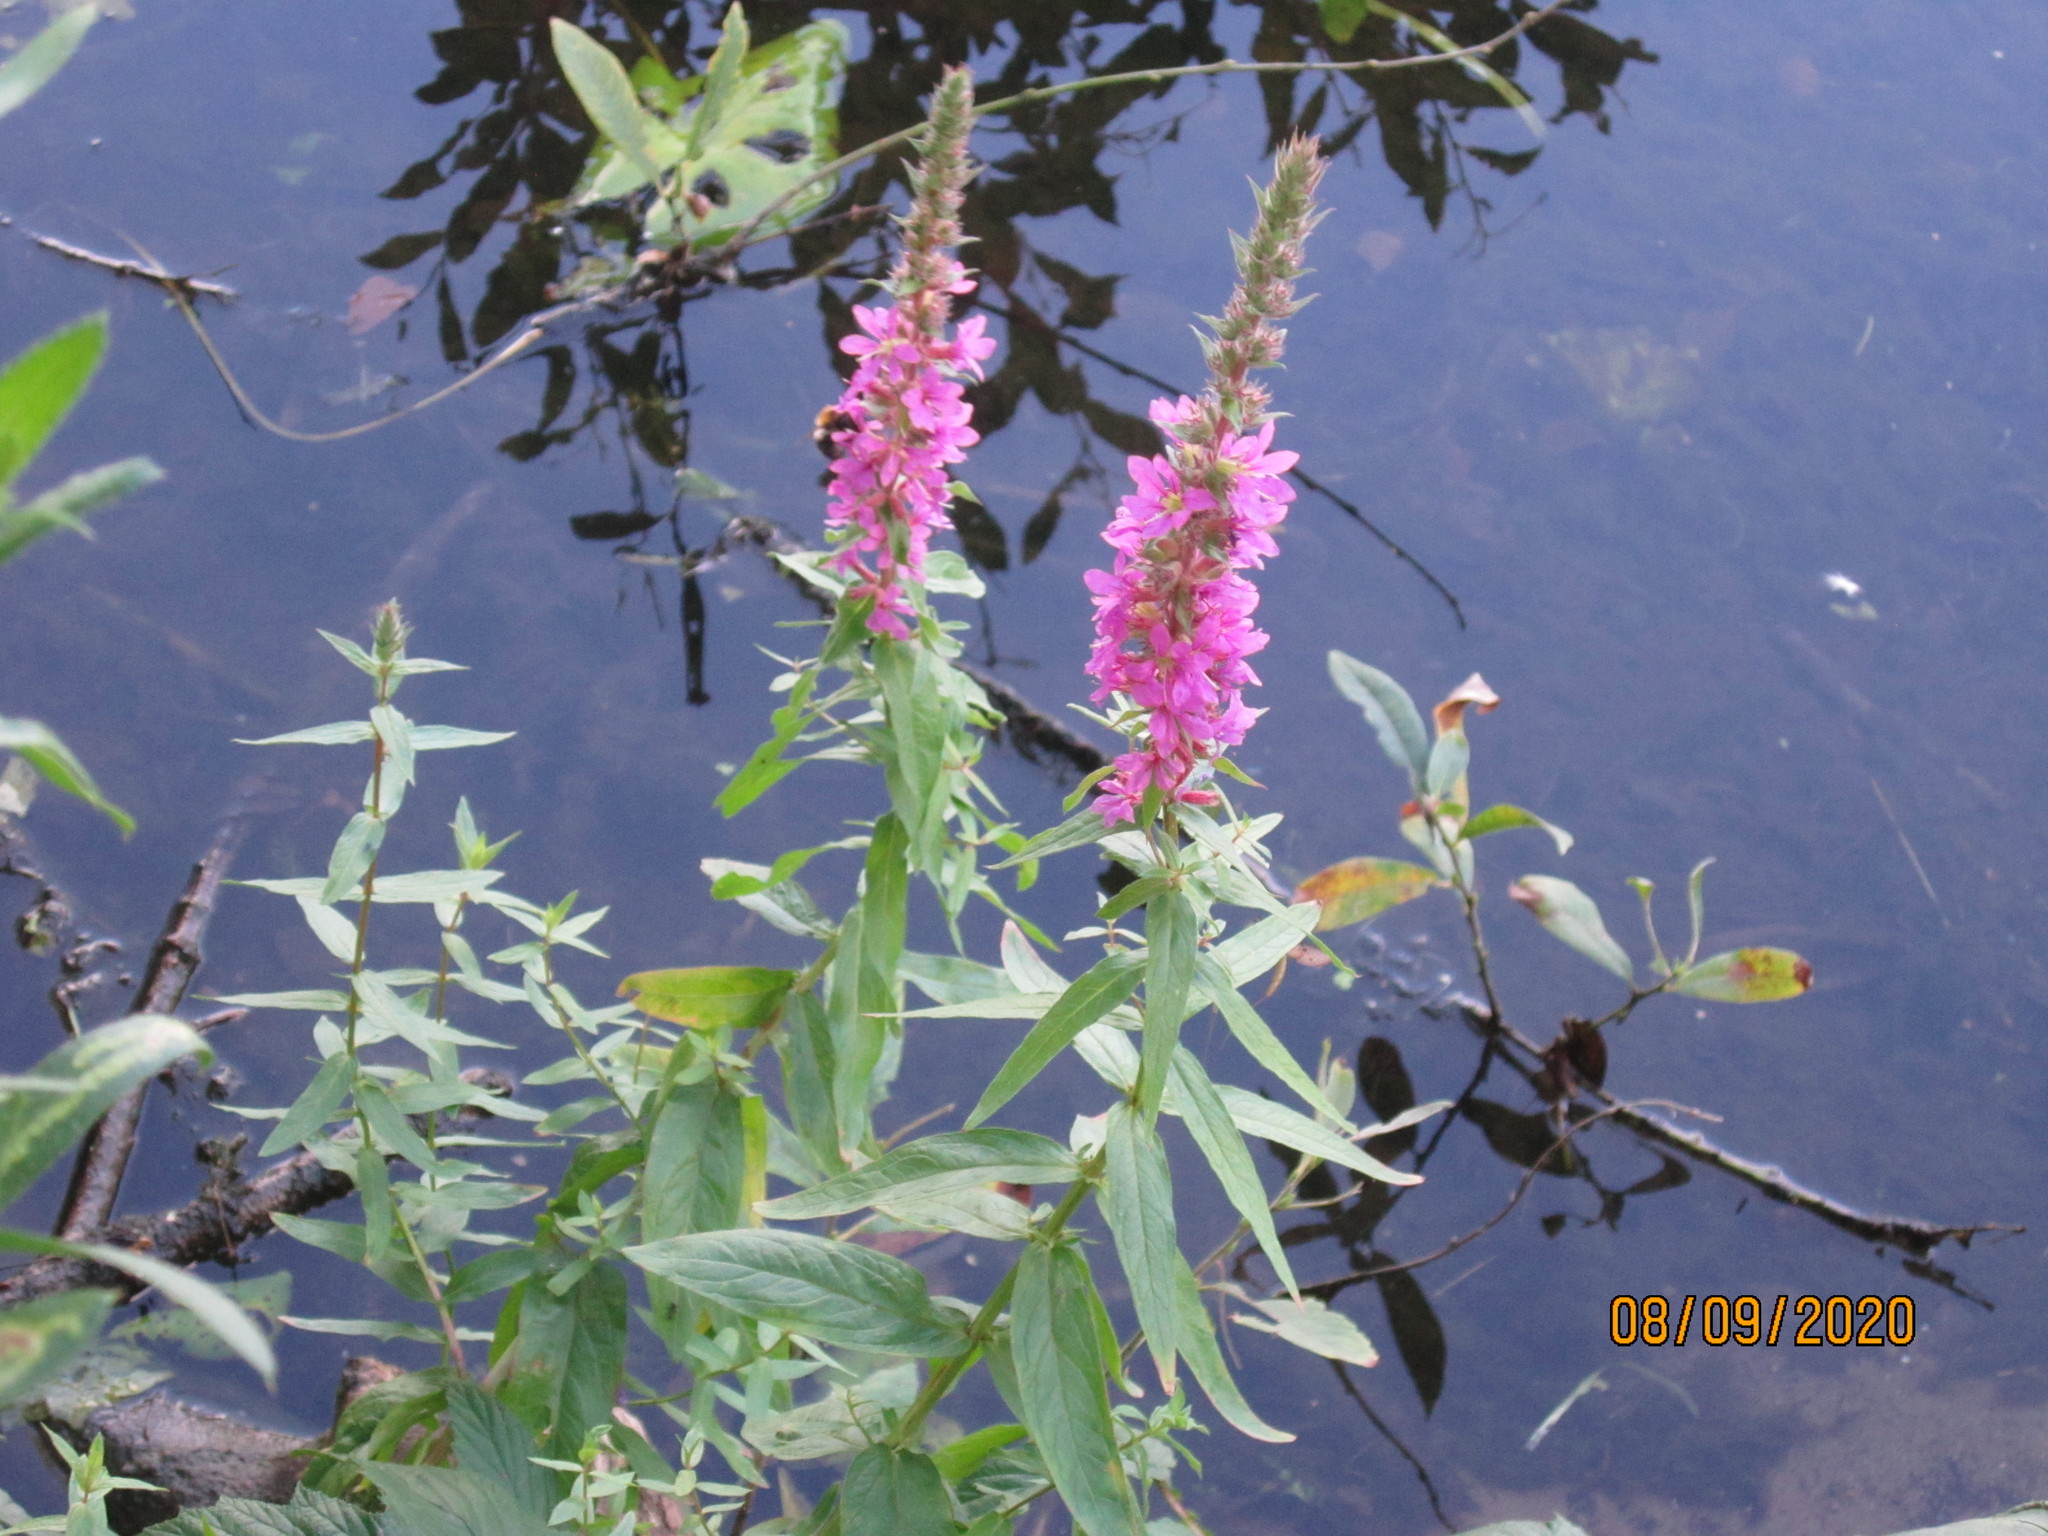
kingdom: Plantae
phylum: Tracheophyta
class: Magnoliopsida
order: Myrtales
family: Lythraceae
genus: Lythrum
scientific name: Lythrum salicaria
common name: Purple loosestrife
